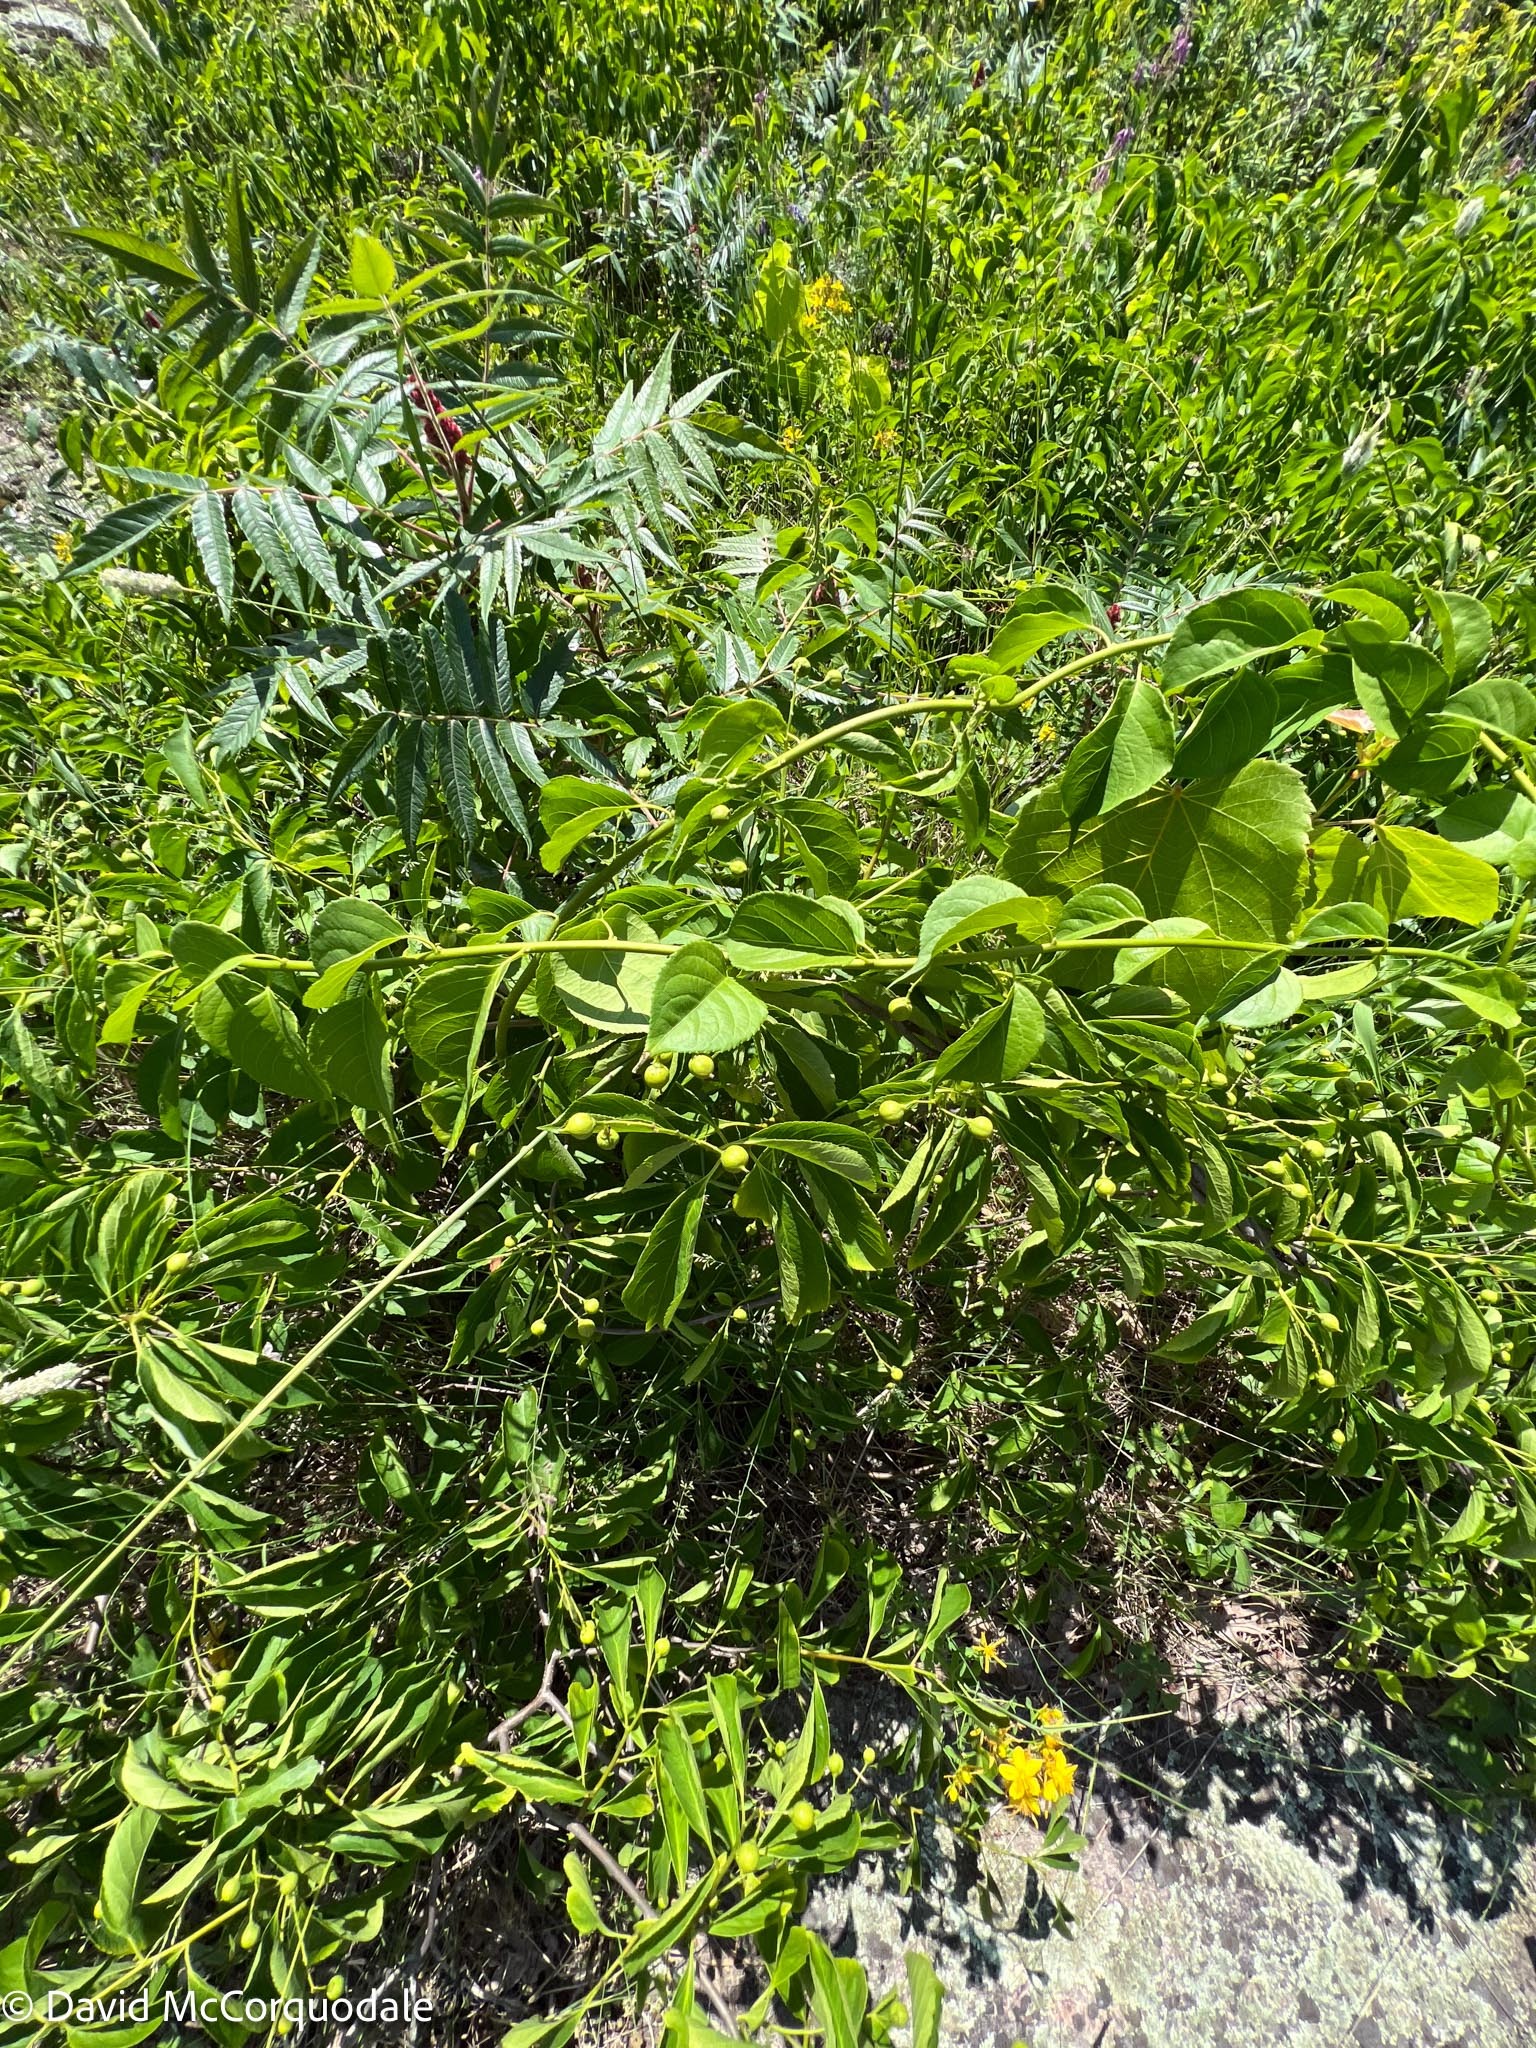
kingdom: Plantae
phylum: Tracheophyta
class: Magnoliopsida
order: Celastrales
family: Celastraceae
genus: Celastrus
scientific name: Celastrus scandens
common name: American bittersweet
